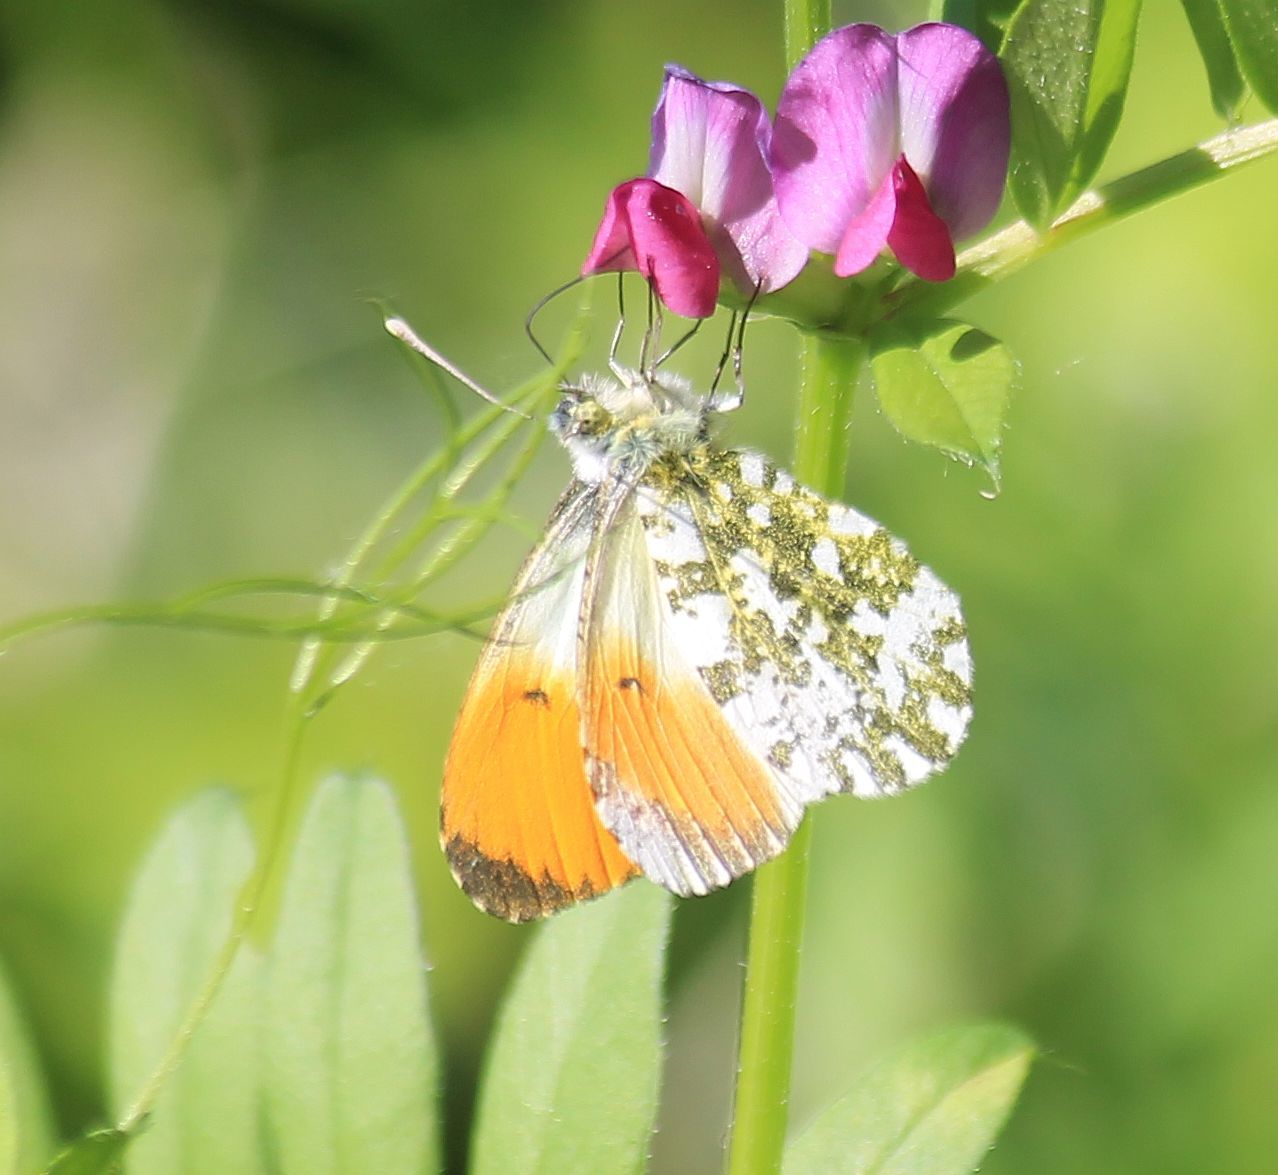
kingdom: Animalia
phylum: Arthropoda
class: Insecta
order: Lepidoptera
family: Pieridae
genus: Anthocharis
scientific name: Anthocharis cardamines
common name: Orange-tip
